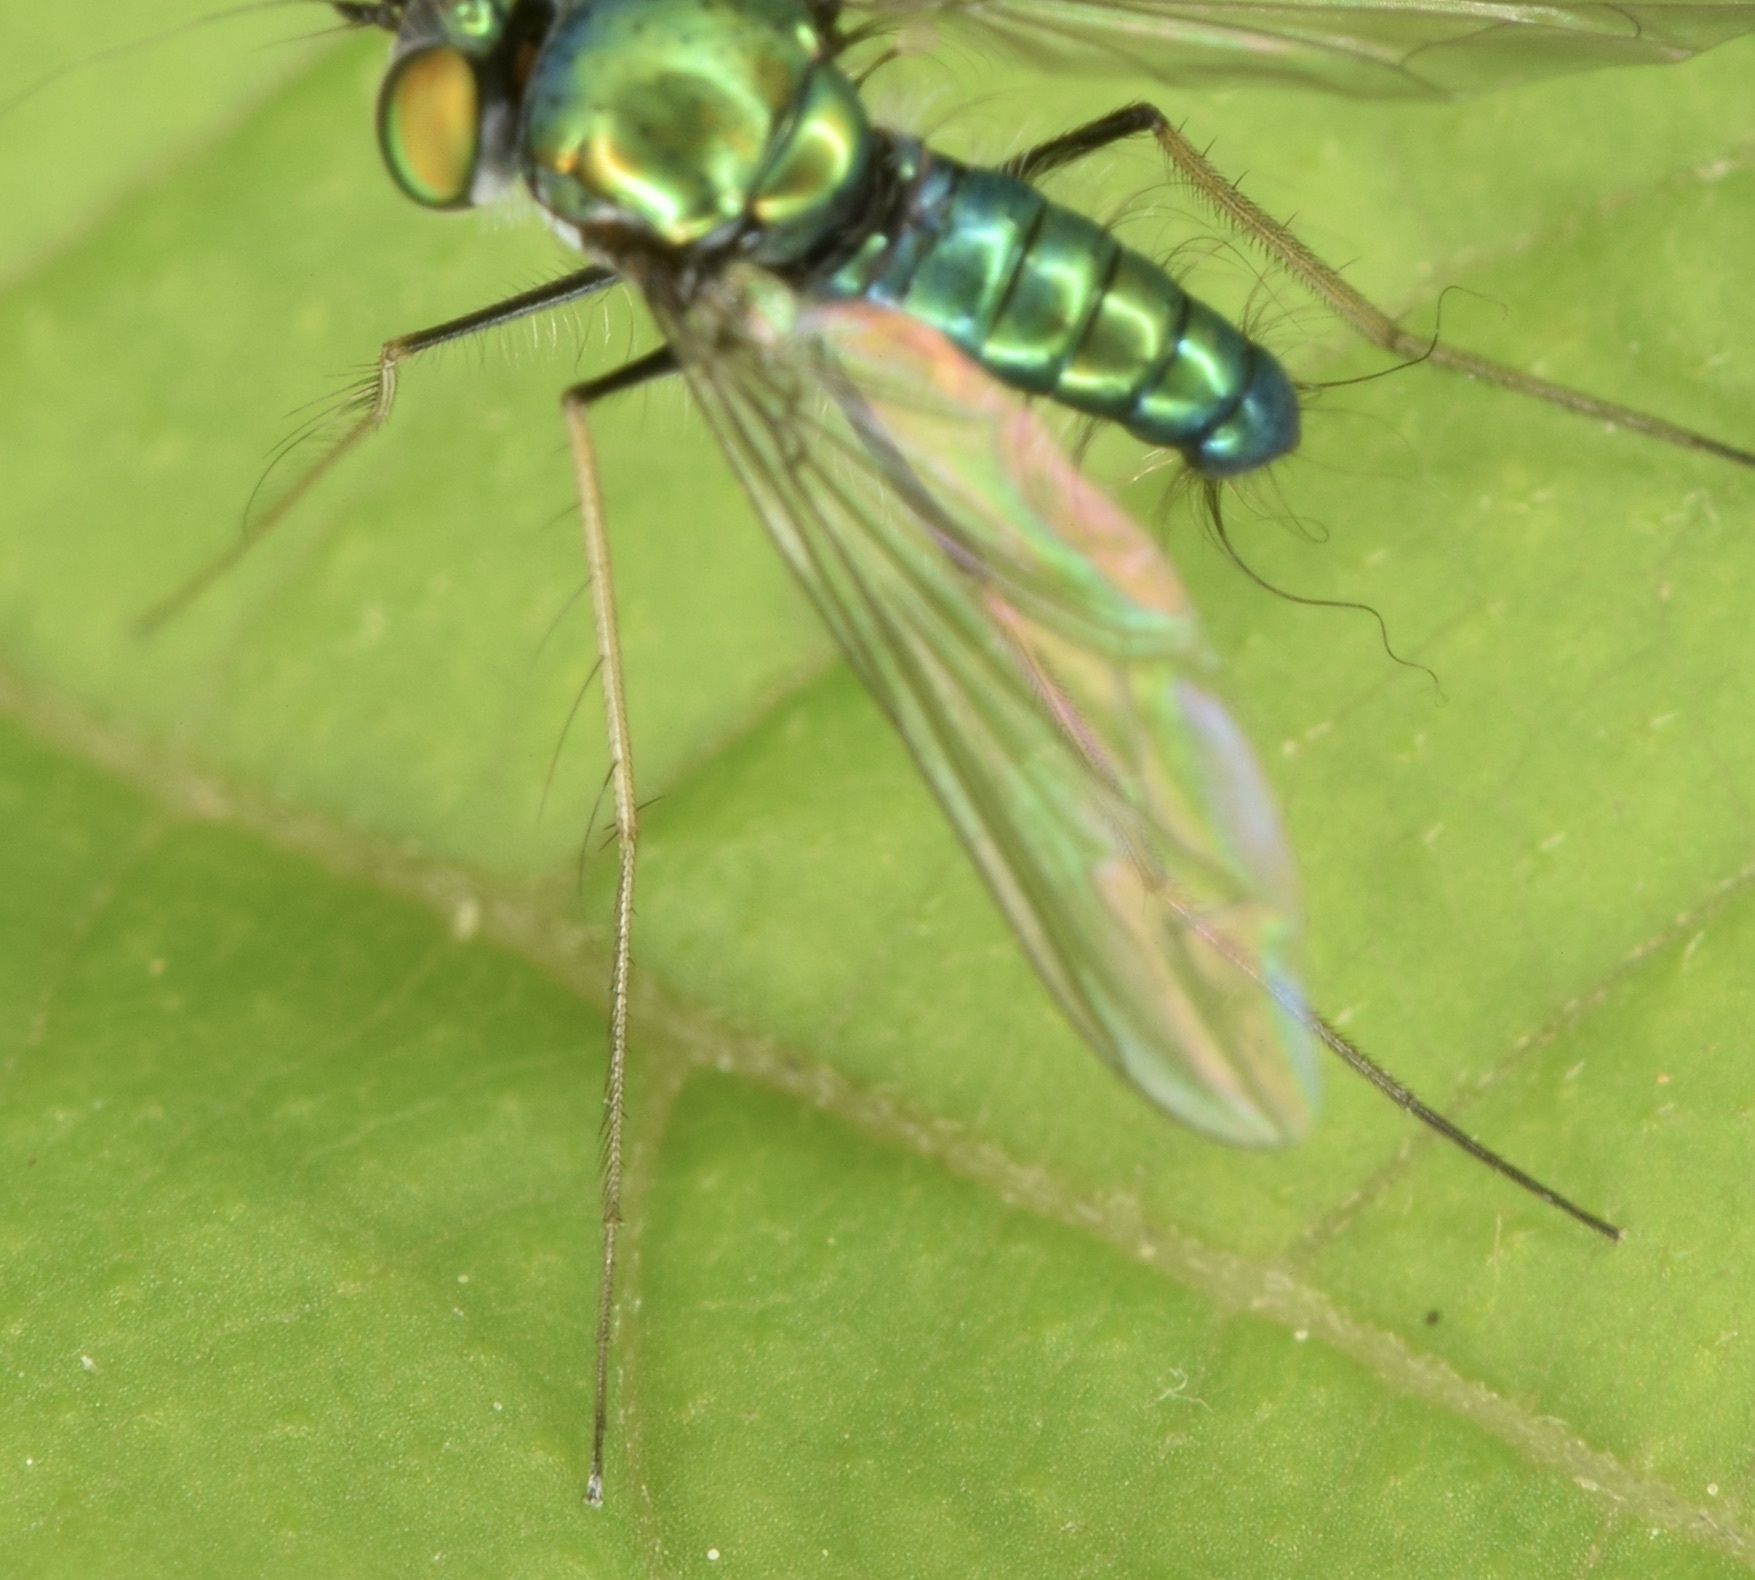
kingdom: Animalia
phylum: Arthropoda
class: Insecta
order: Diptera
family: Dolichopodidae
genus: Condylostylus
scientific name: Condylostylus comatus
